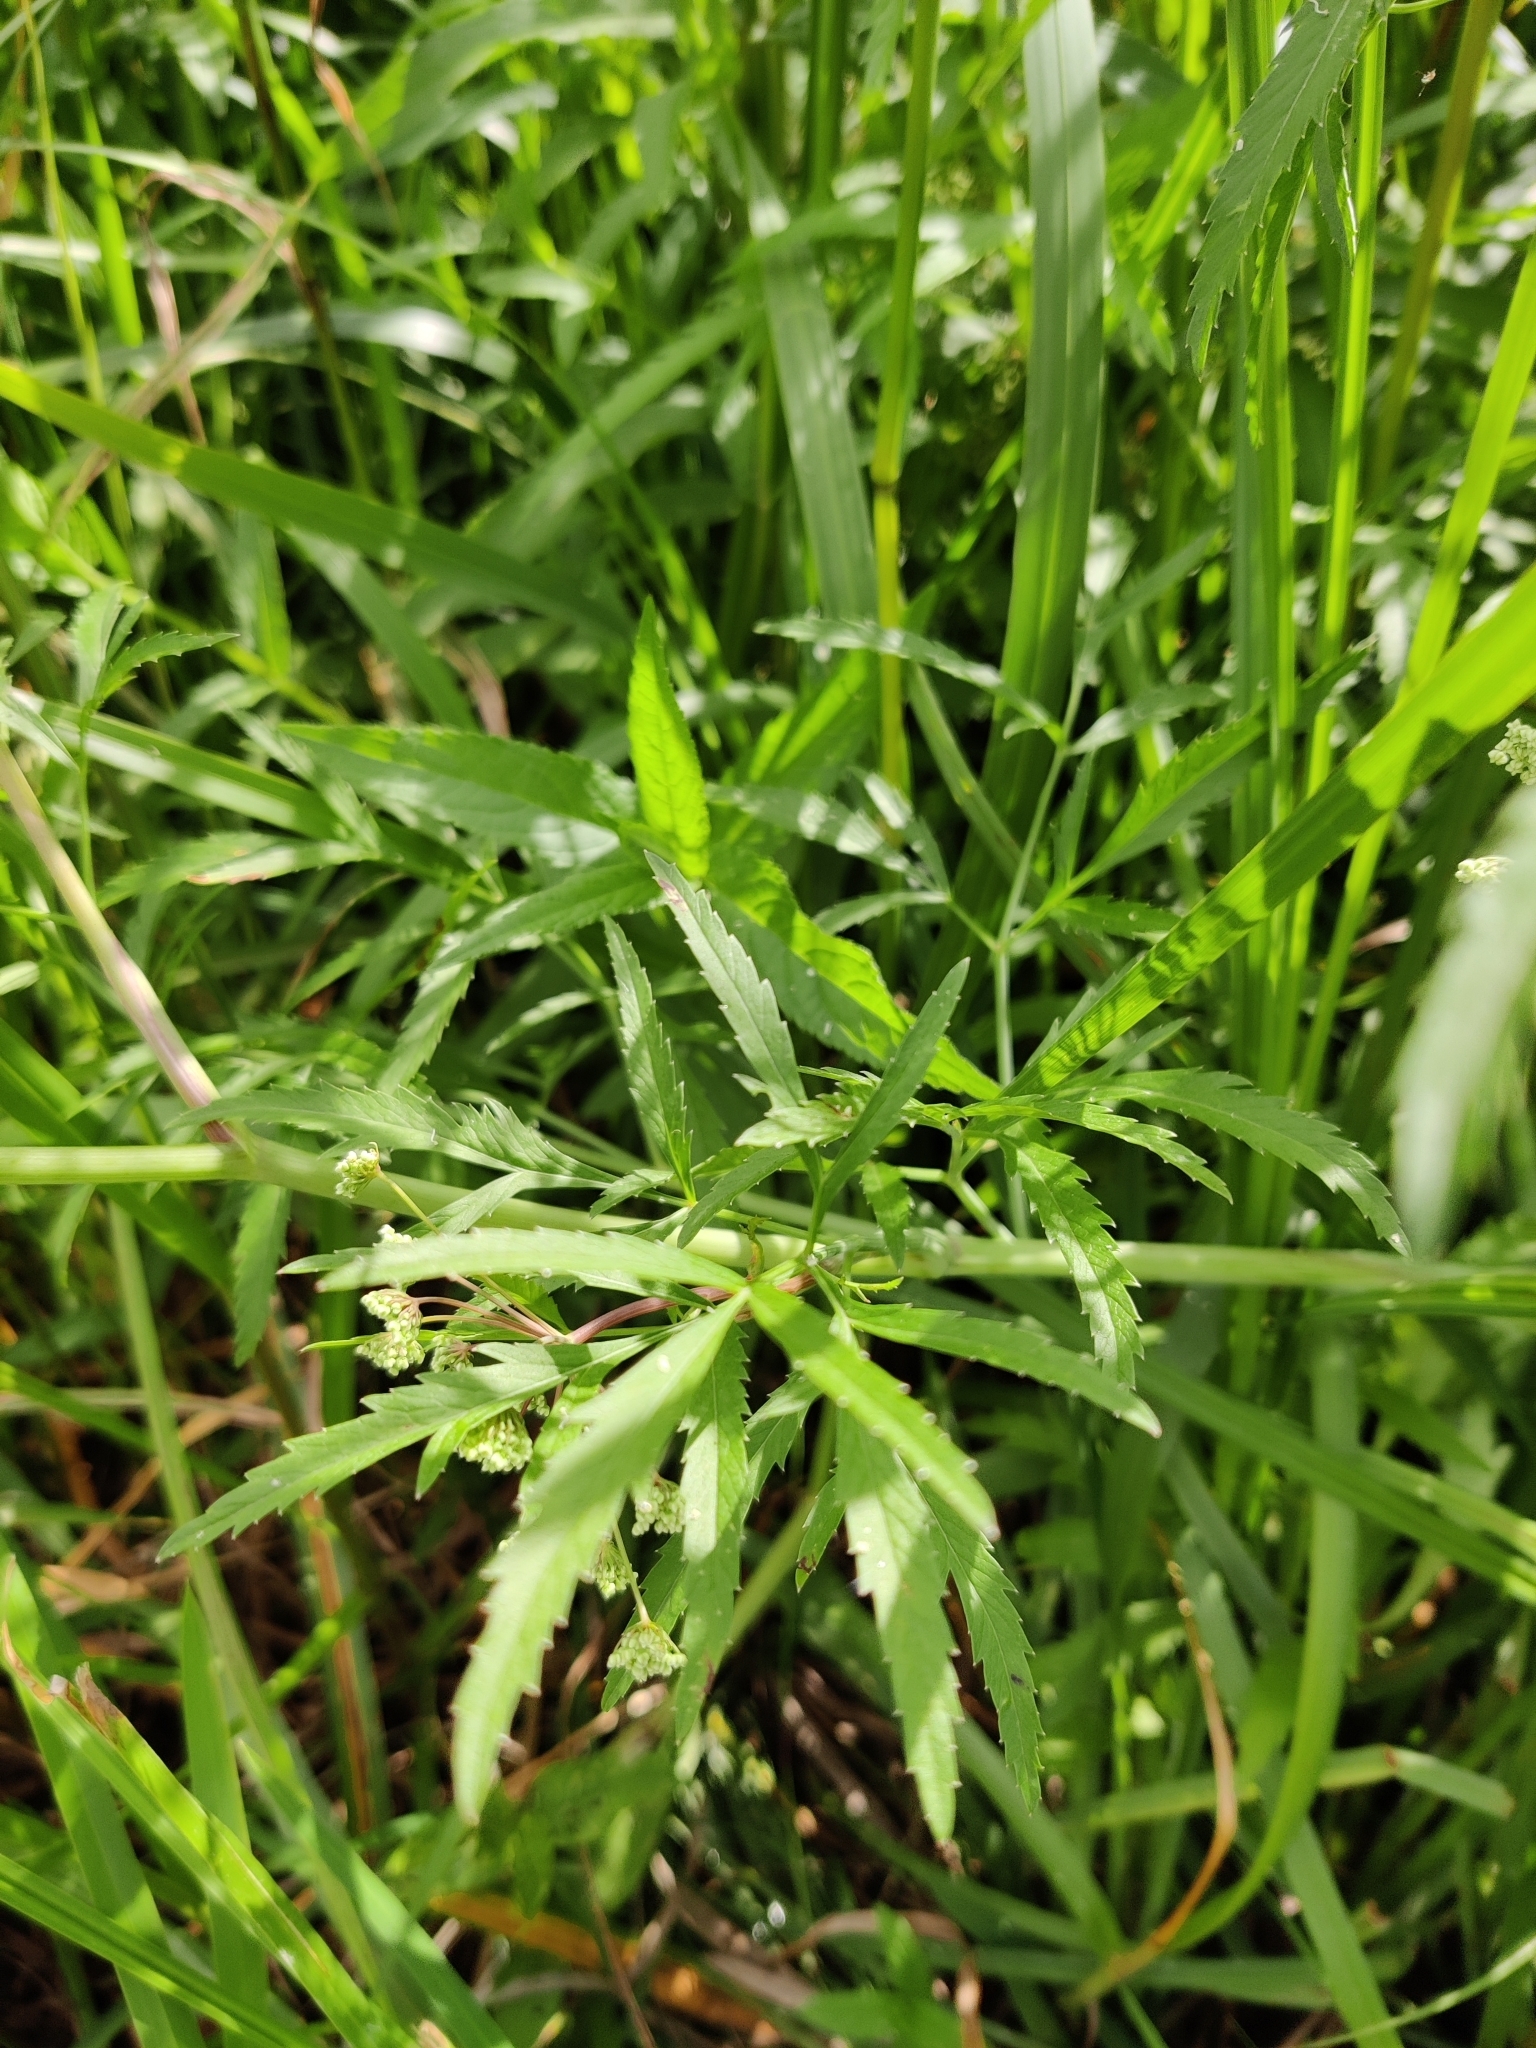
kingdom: Plantae
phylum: Tracheophyta
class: Magnoliopsida
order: Apiales
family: Apiaceae
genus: Cicuta
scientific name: Cicuta virosa
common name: Cowbane
